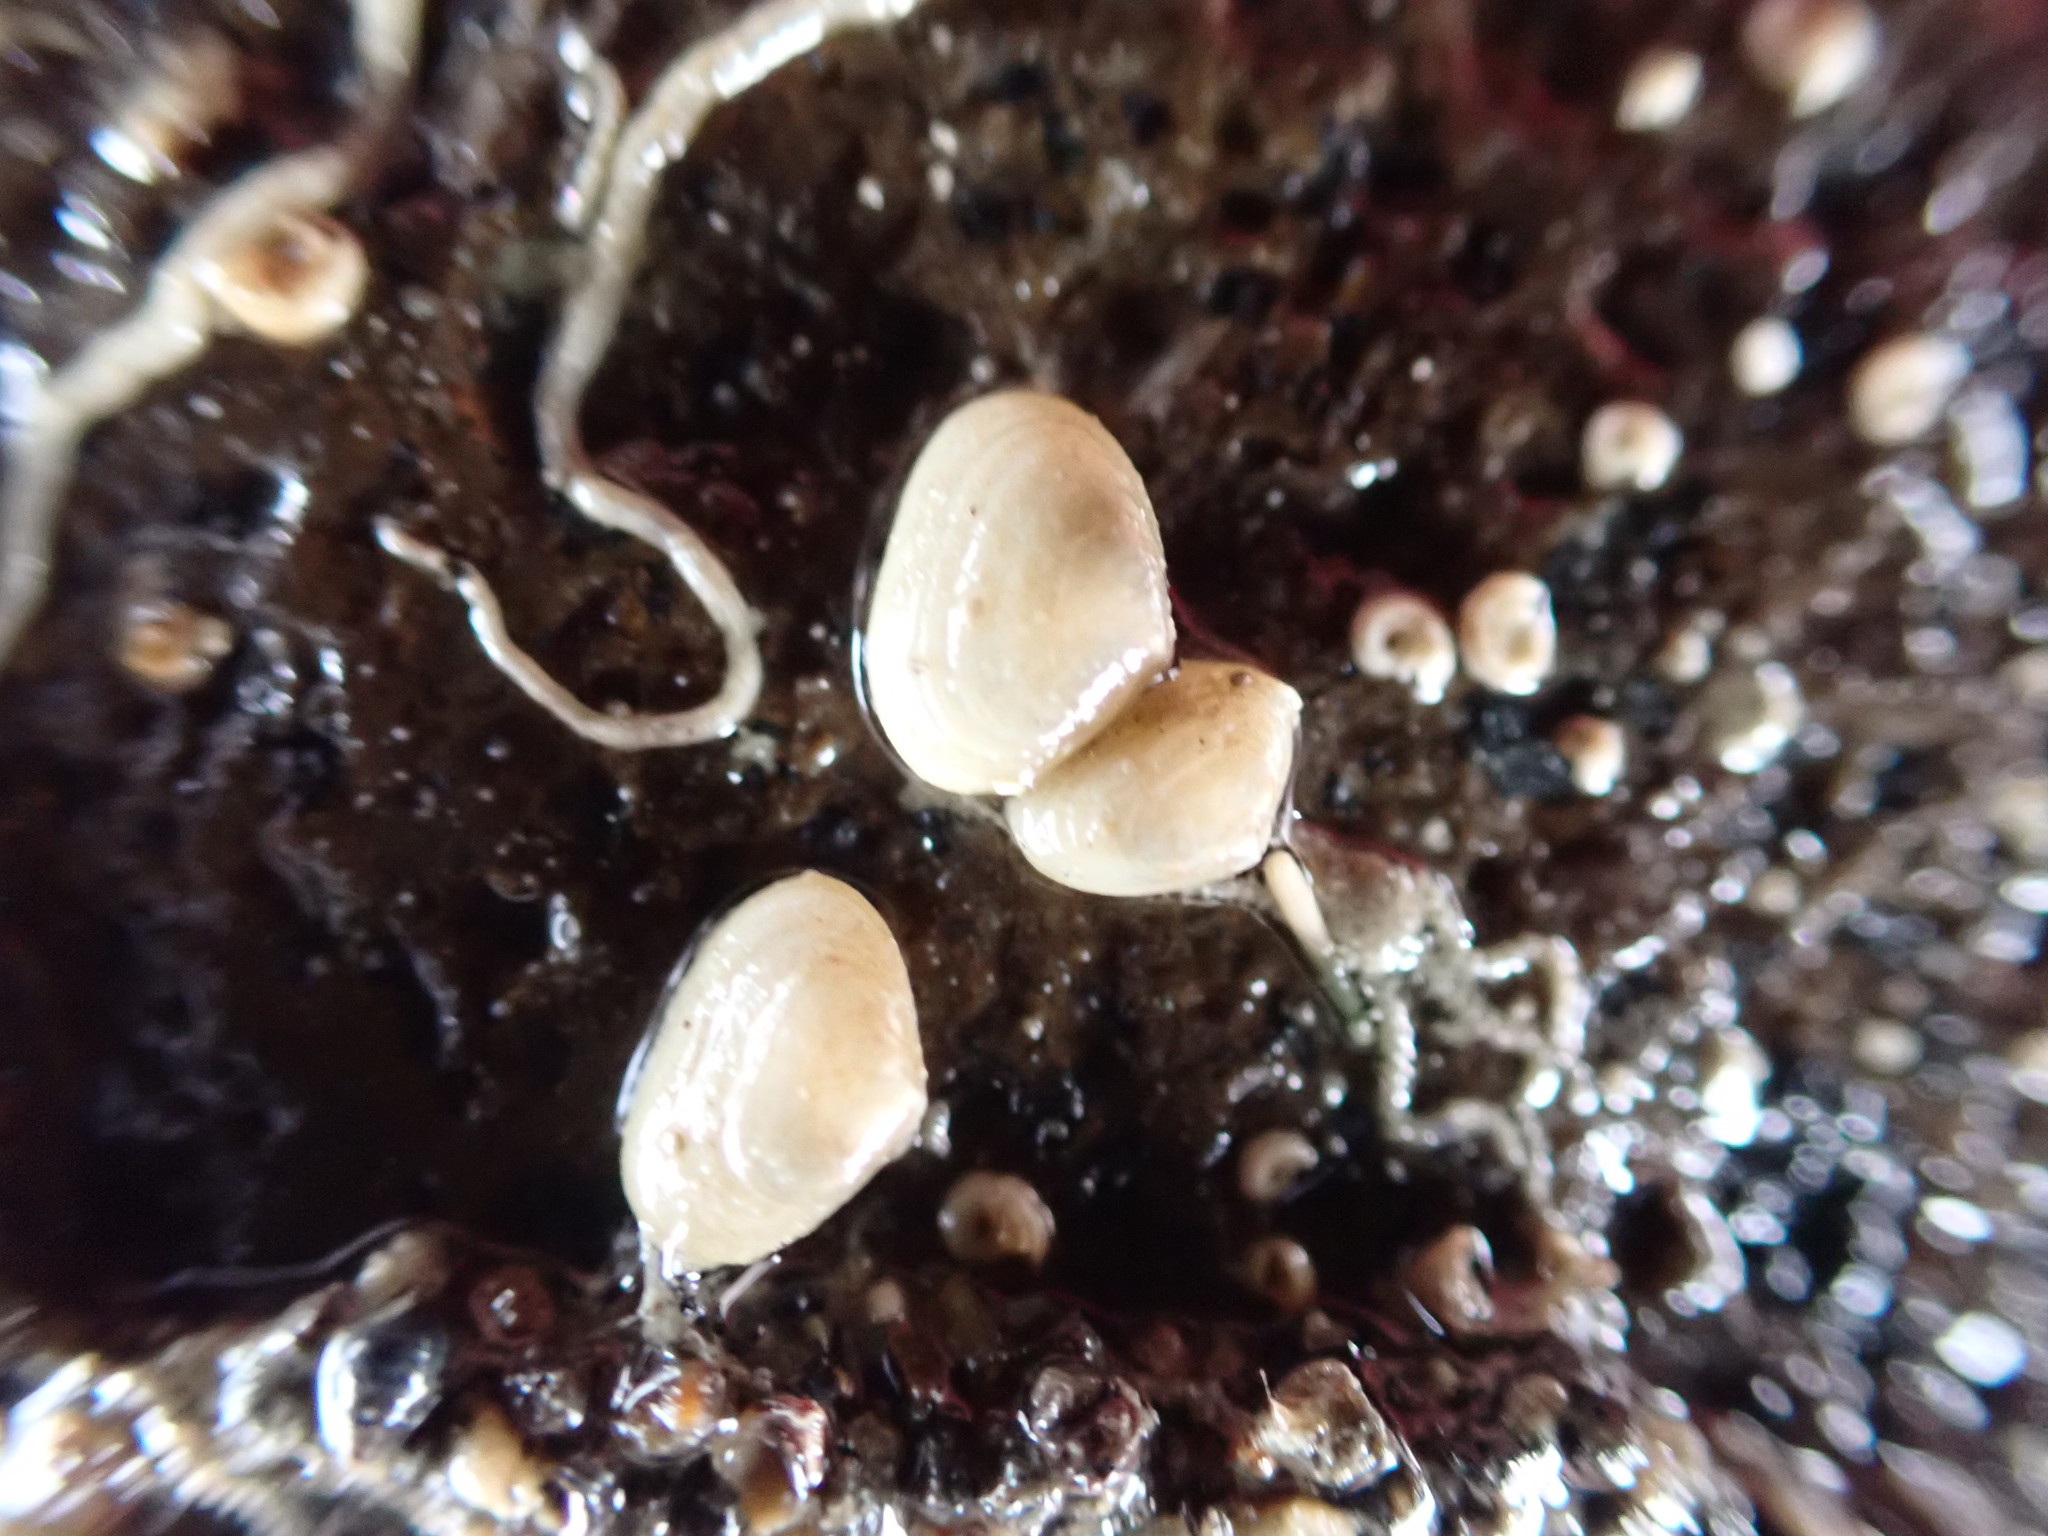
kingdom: Animalia
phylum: Mollusca
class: Bivalvia
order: Galeommatida
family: Lasaeidae
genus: Borniola
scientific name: Borniola reniformis
